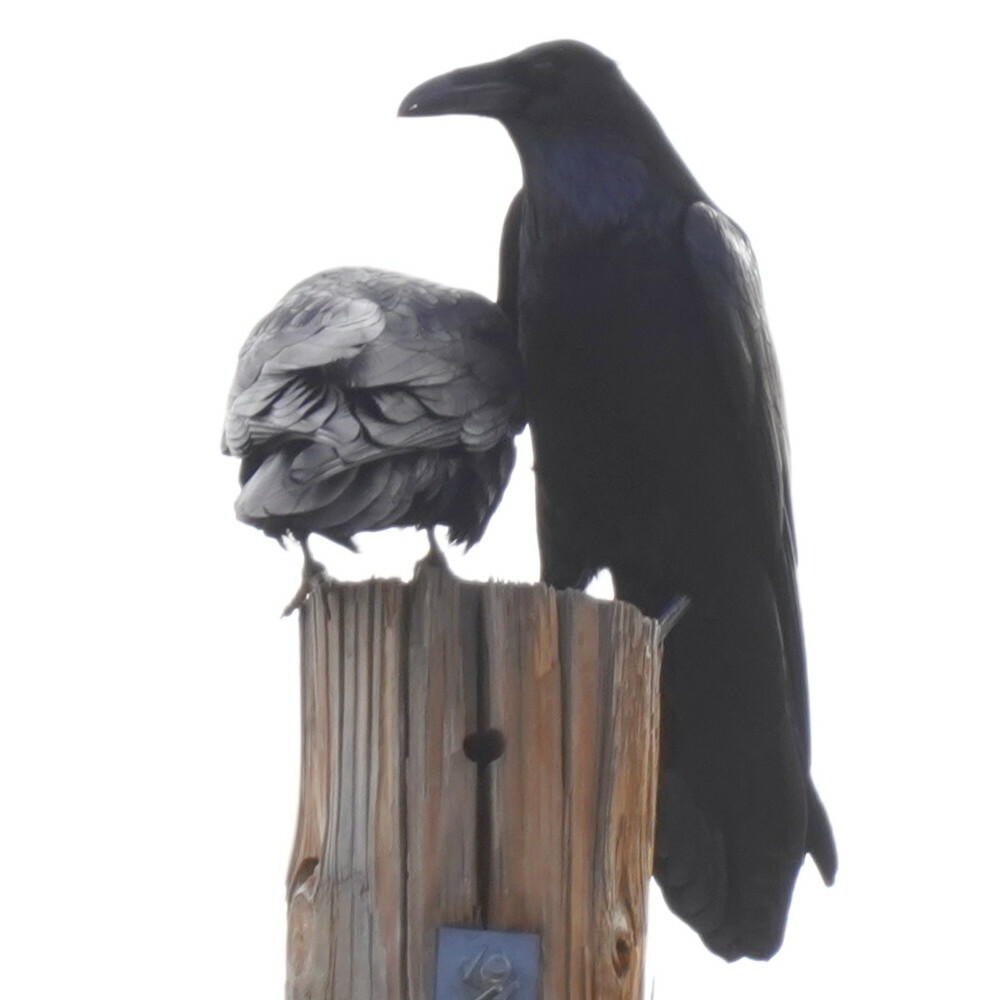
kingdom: Animalia
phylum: Chordata
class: Aves
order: Passeriformes
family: Corvidae
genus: Corvus
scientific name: Corvus corax
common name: Common raven
